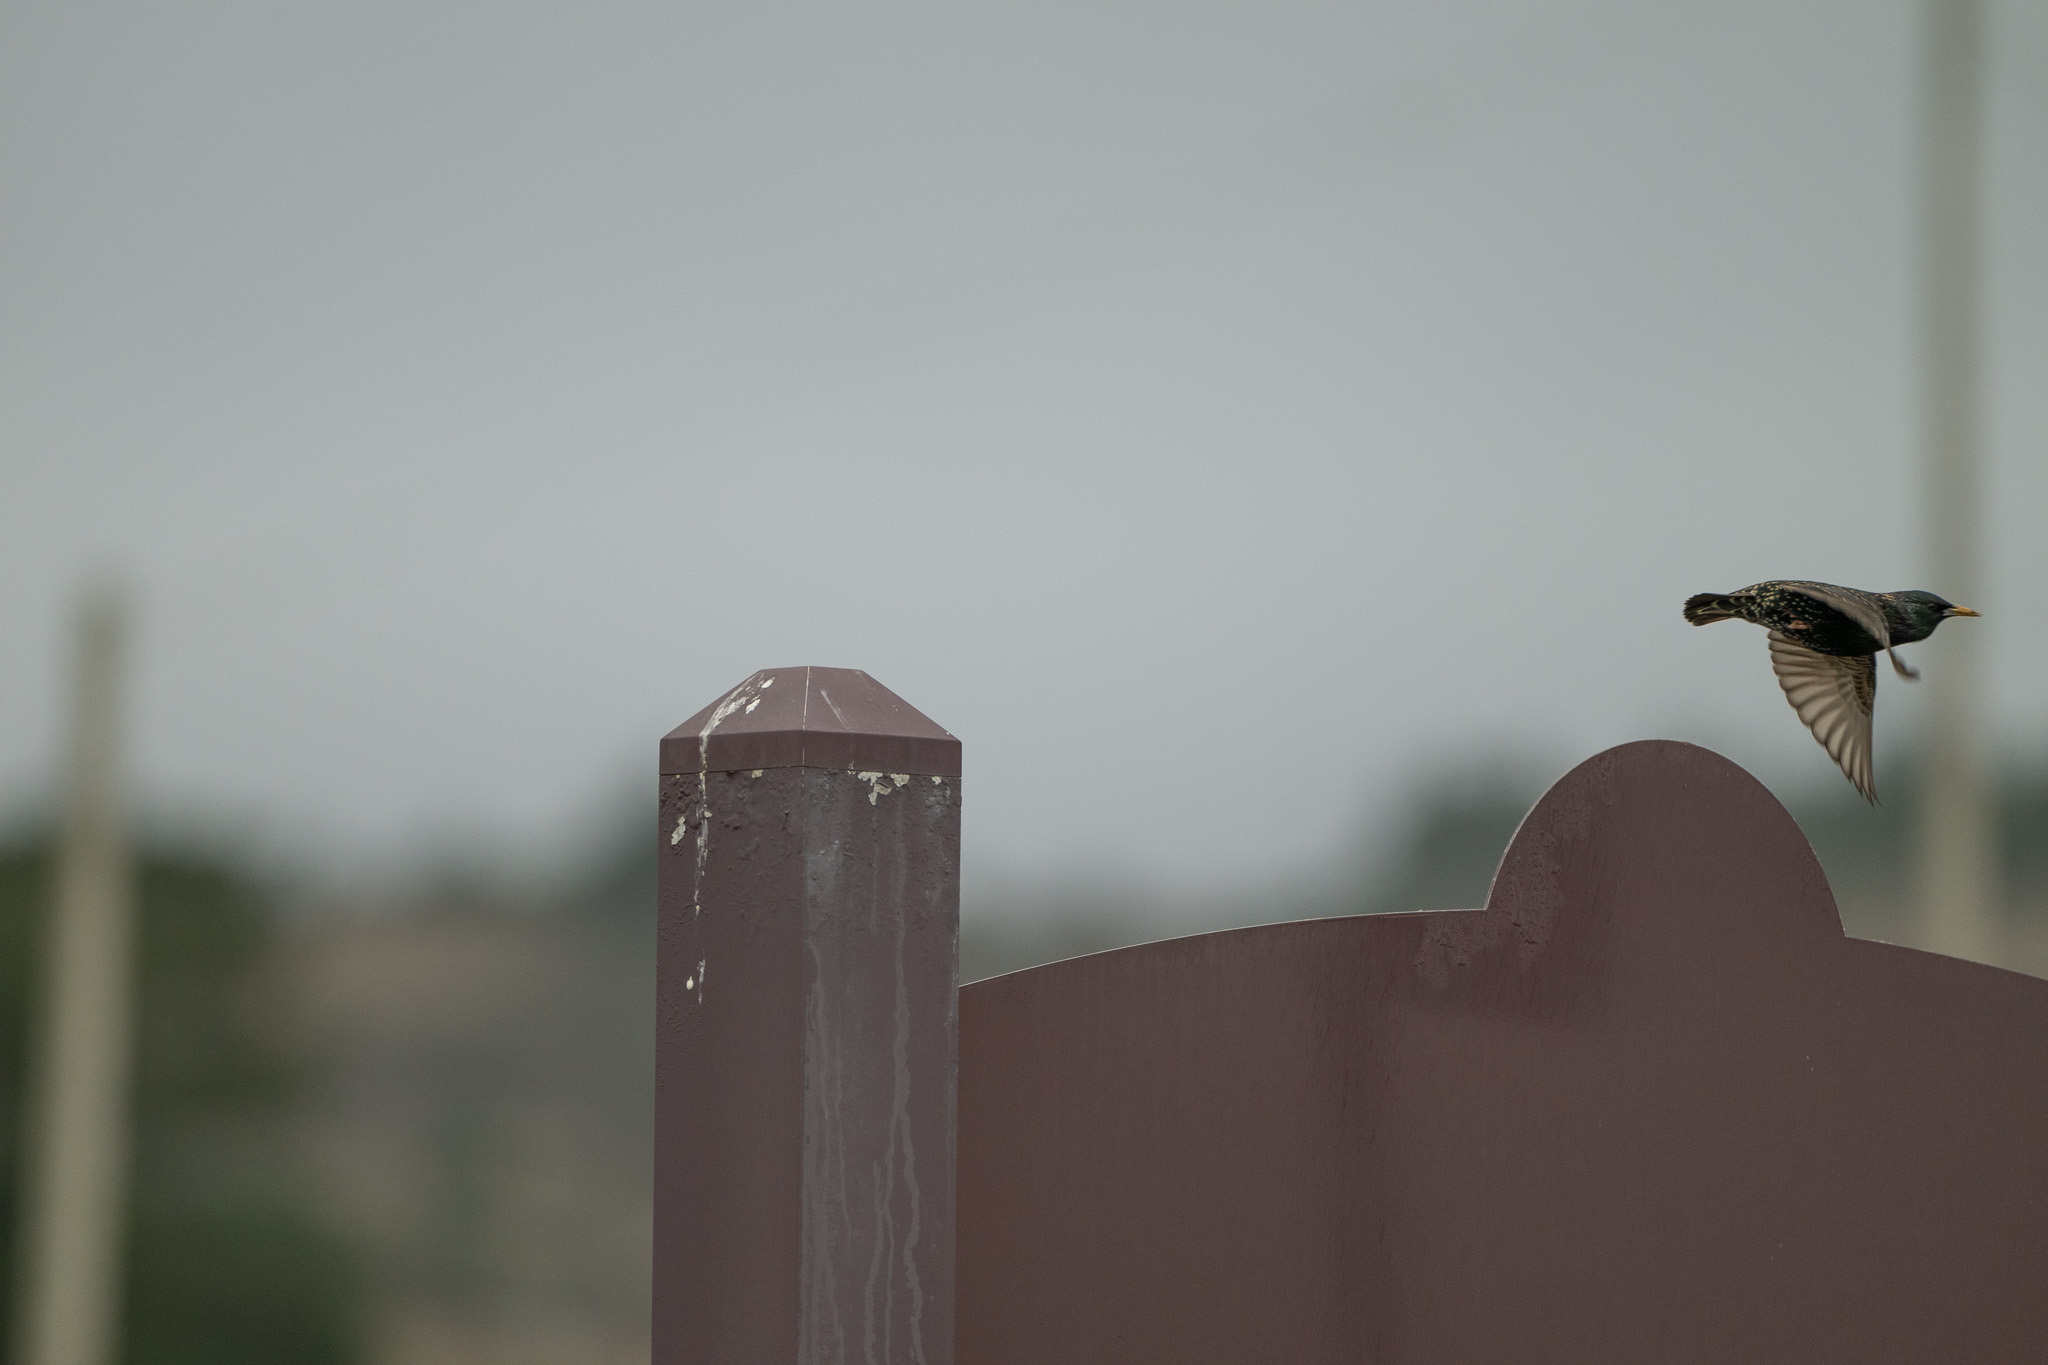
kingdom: Animalia
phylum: Chordata
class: Aves
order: Passeriformes
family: Sturnidae
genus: Sturnus
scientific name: Sturnus vulgaris
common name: Common starling
